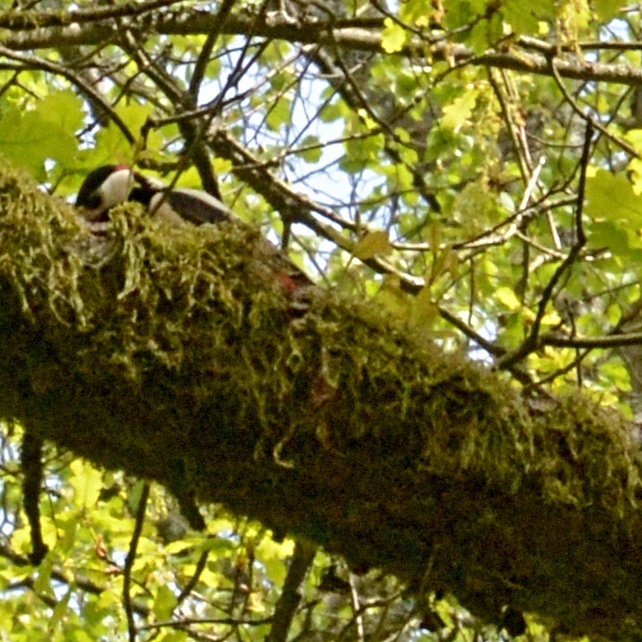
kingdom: Animalia
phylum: Chordata
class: Aves
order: Piciformes
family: Picidae
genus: Dendrocopos
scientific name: Dendrocopos major
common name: Great spotted woodpecker
